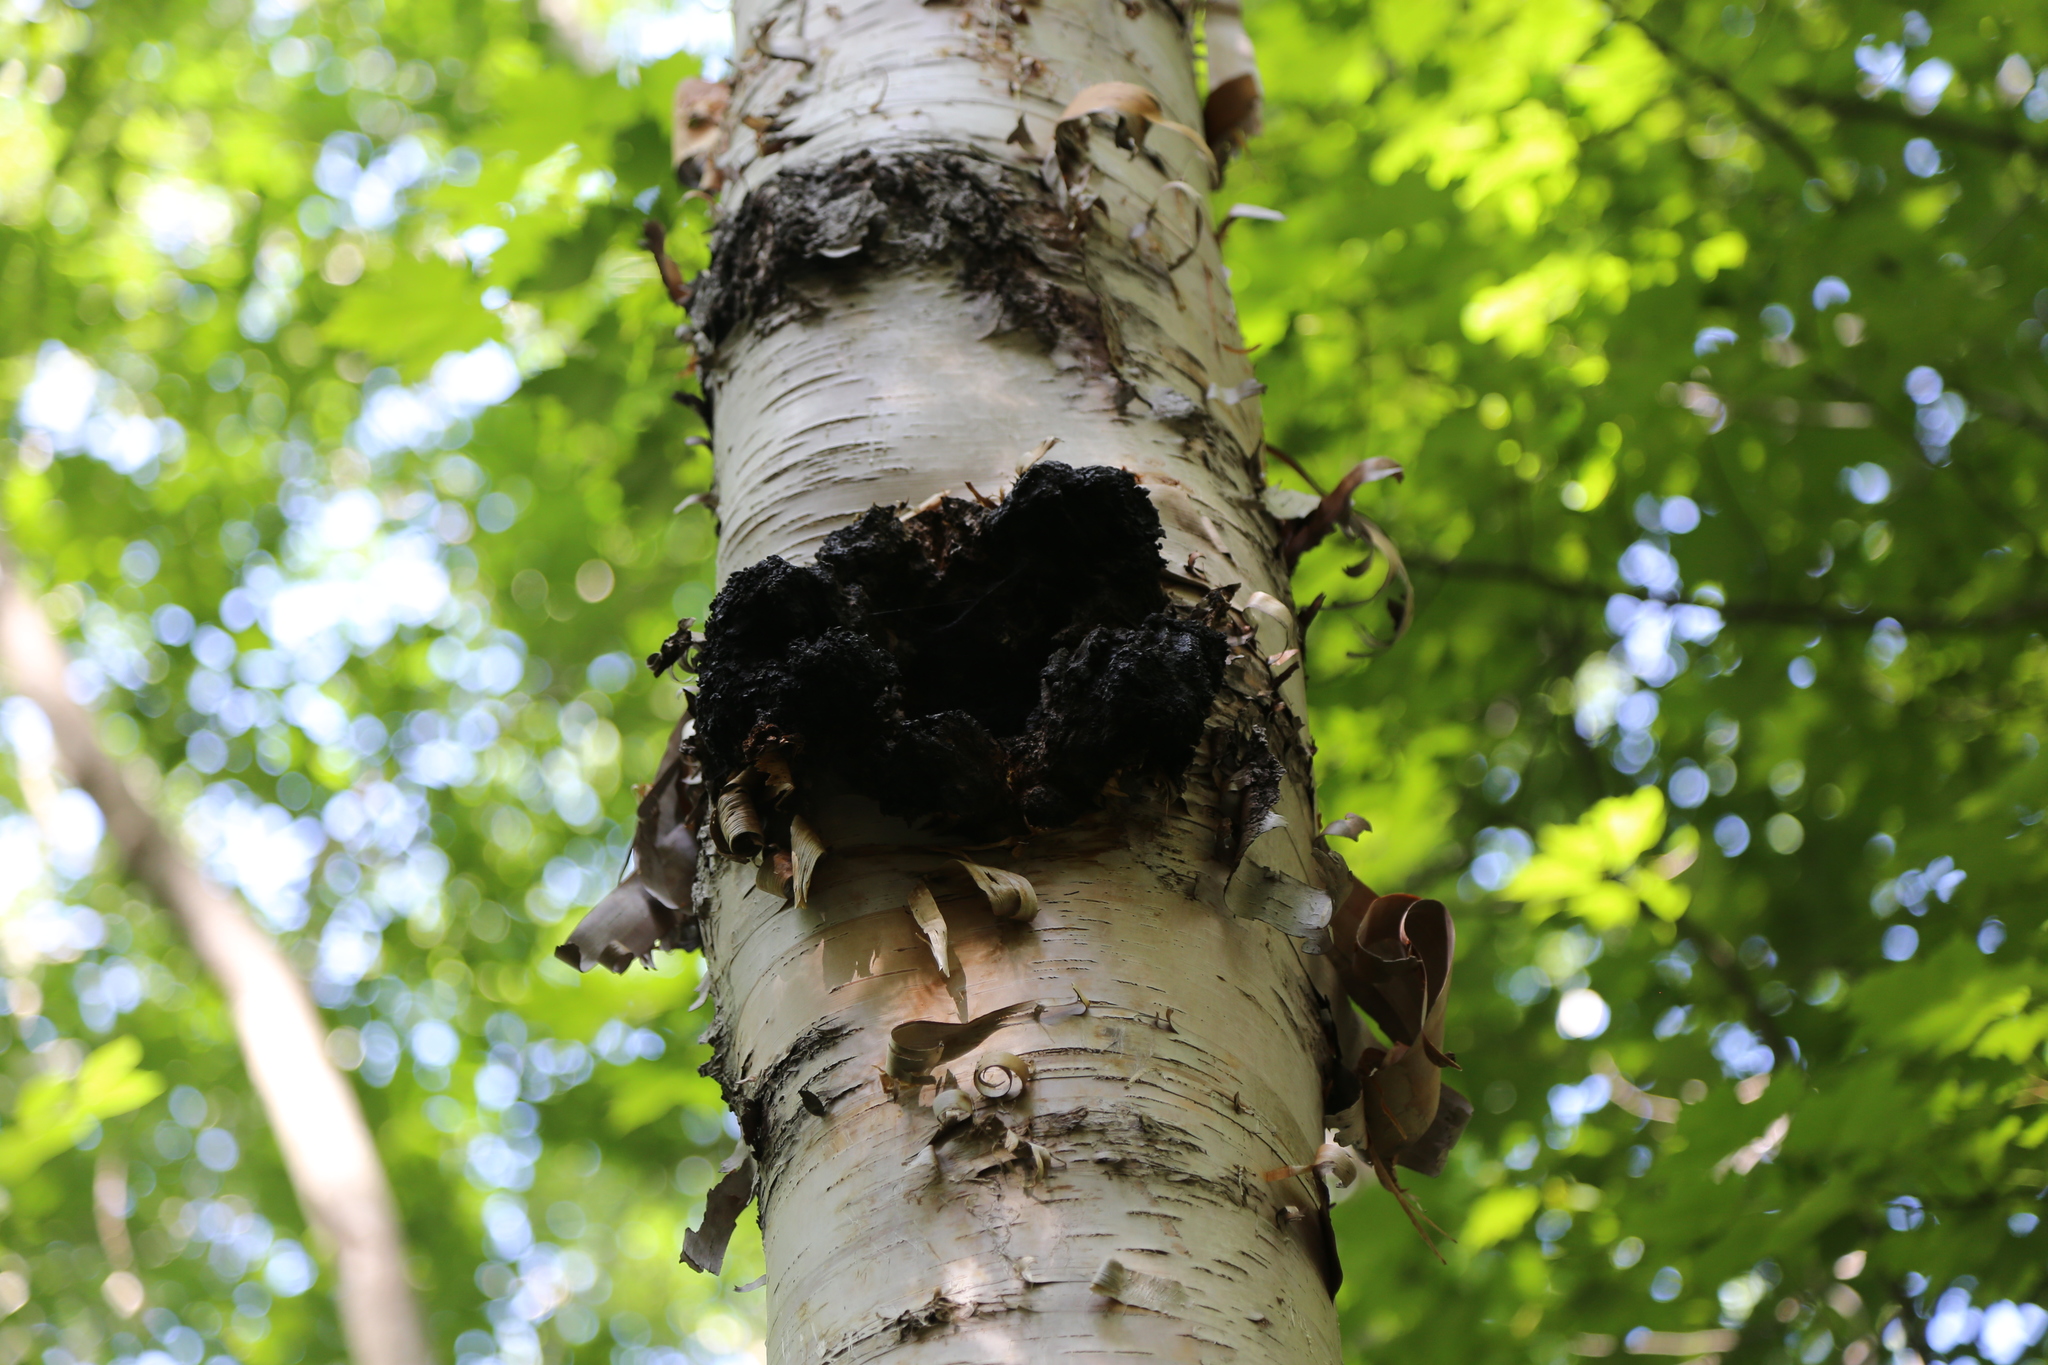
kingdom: Fungi
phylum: Basidiomycota
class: Agaricomycetes
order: Hymenochaetales
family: Hymenochaetaceae
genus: Inonotus
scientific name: Inonotus obliquus
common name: Chaga
